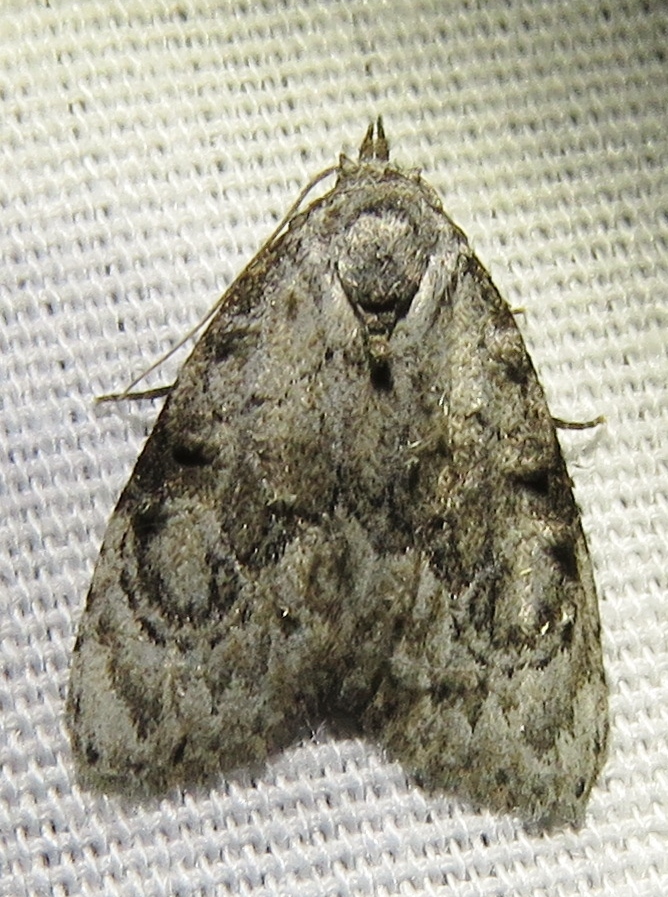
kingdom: Animalia
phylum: Arthropoda
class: Insecta
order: Lepidoptera
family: Nolidae
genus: Meganola
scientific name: Meganola minuscula
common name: Confused meganola moth
